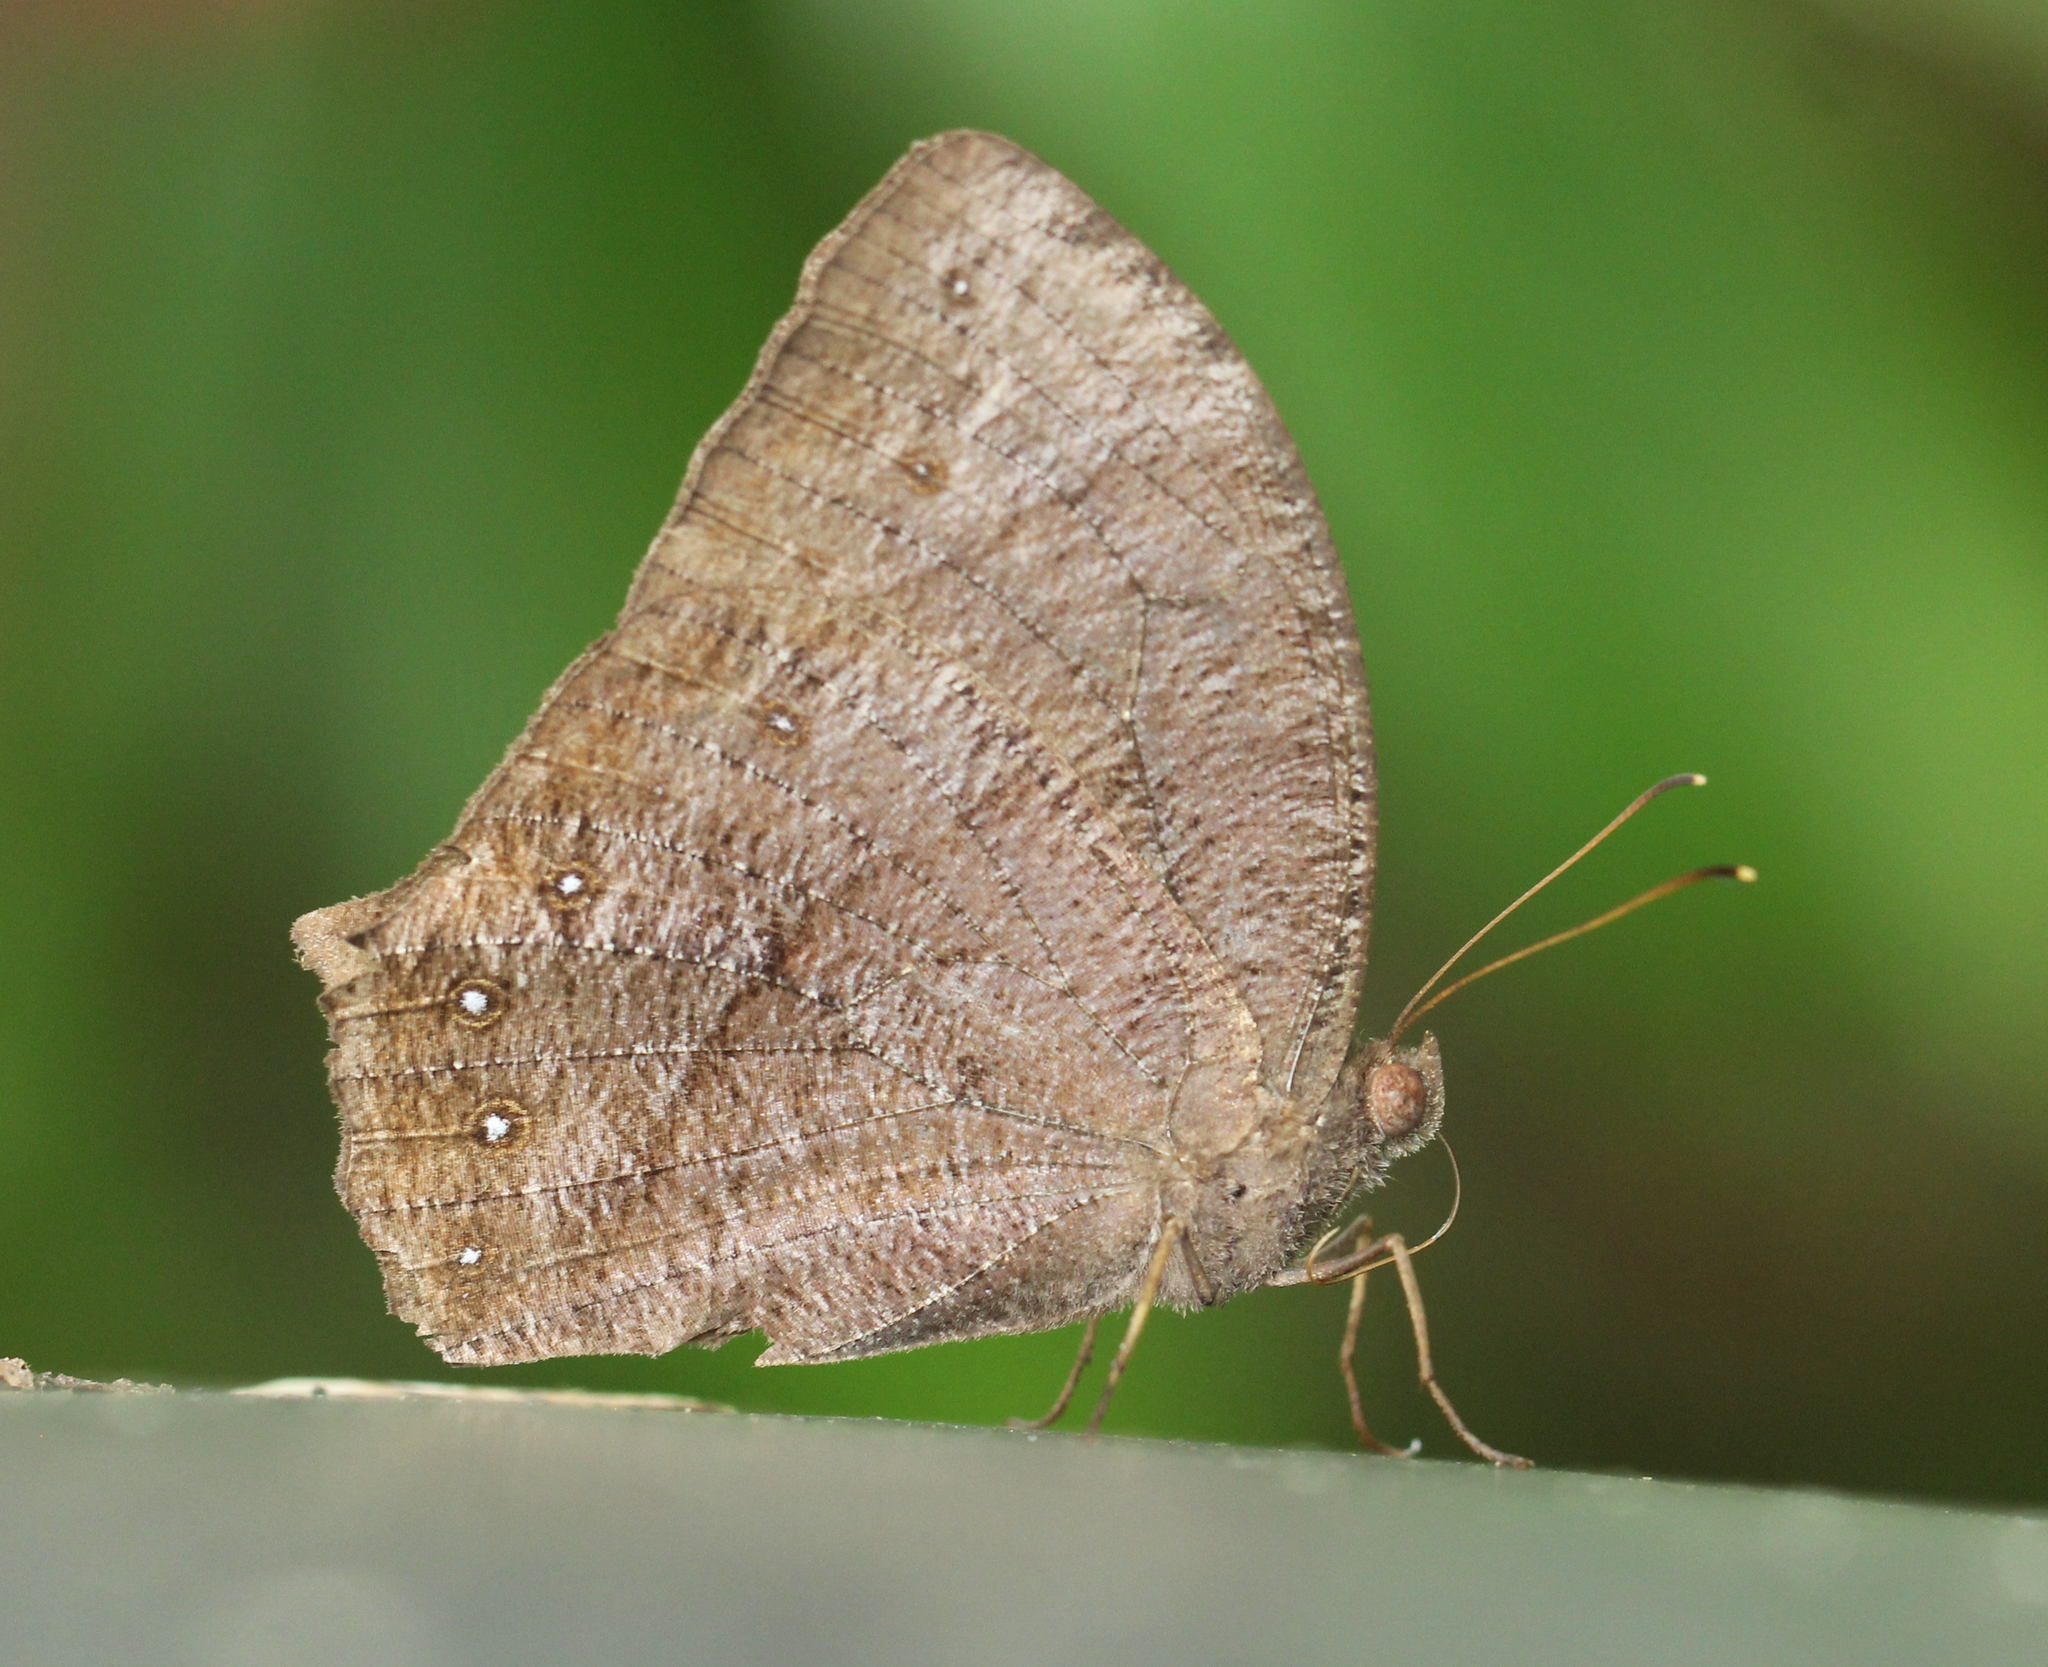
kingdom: Animalia
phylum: Arthropoda
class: Insecta
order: Lepidoptera
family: Nymphalidae
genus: Melanitis
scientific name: Melanitis phedima
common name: Dark evening brown
